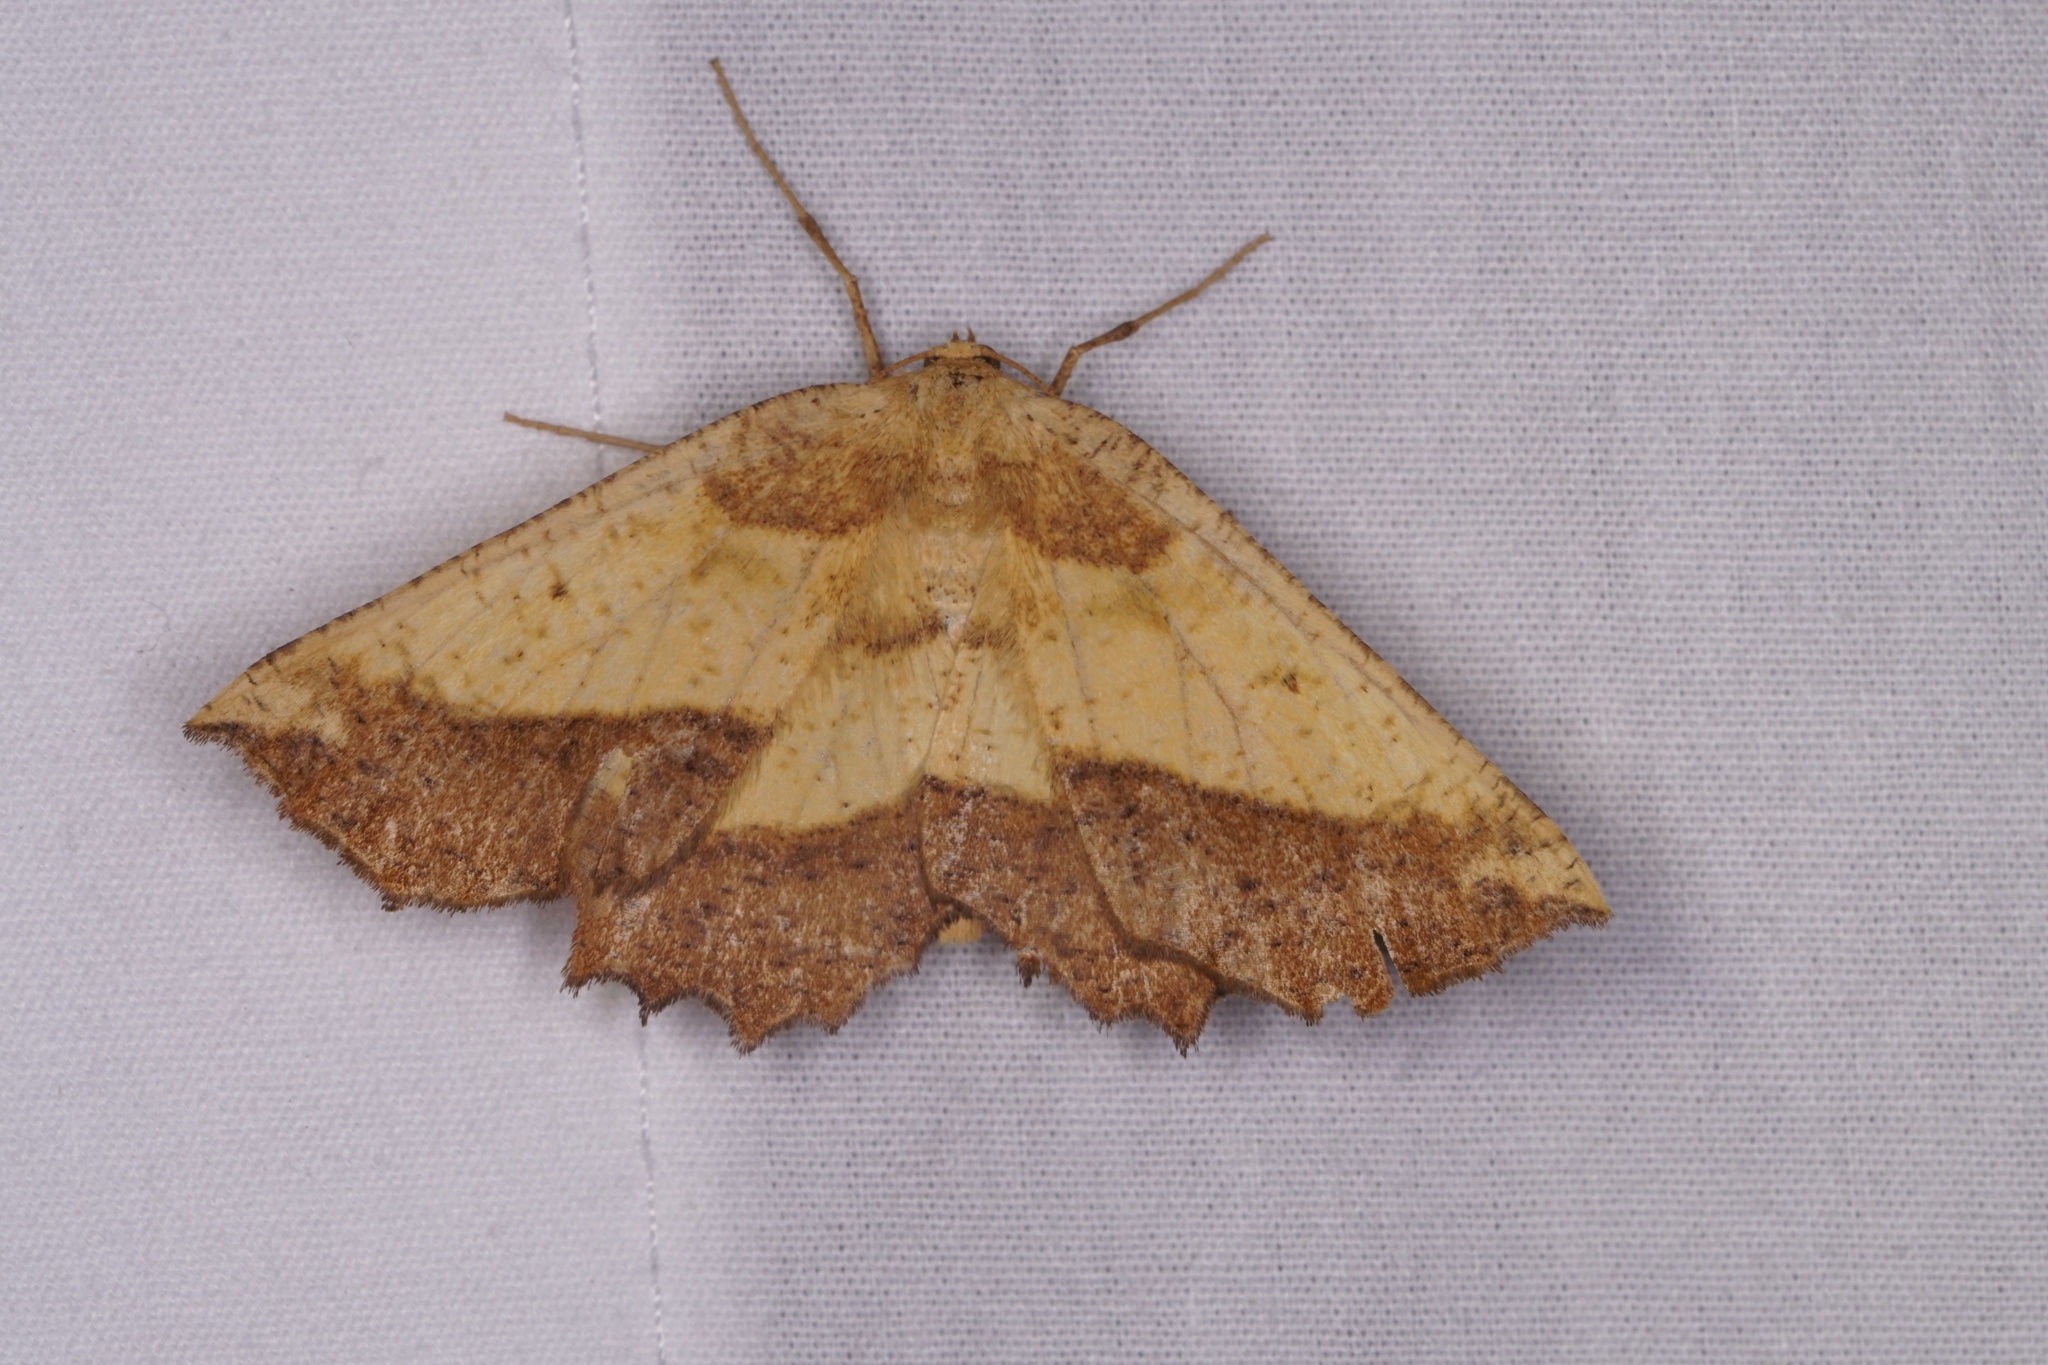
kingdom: Animalia
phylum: Arthropoda
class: Insecta
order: Lepidoptera
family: Geometridae
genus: Euchlaena
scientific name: Euchlaena serrata
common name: Saw wing
